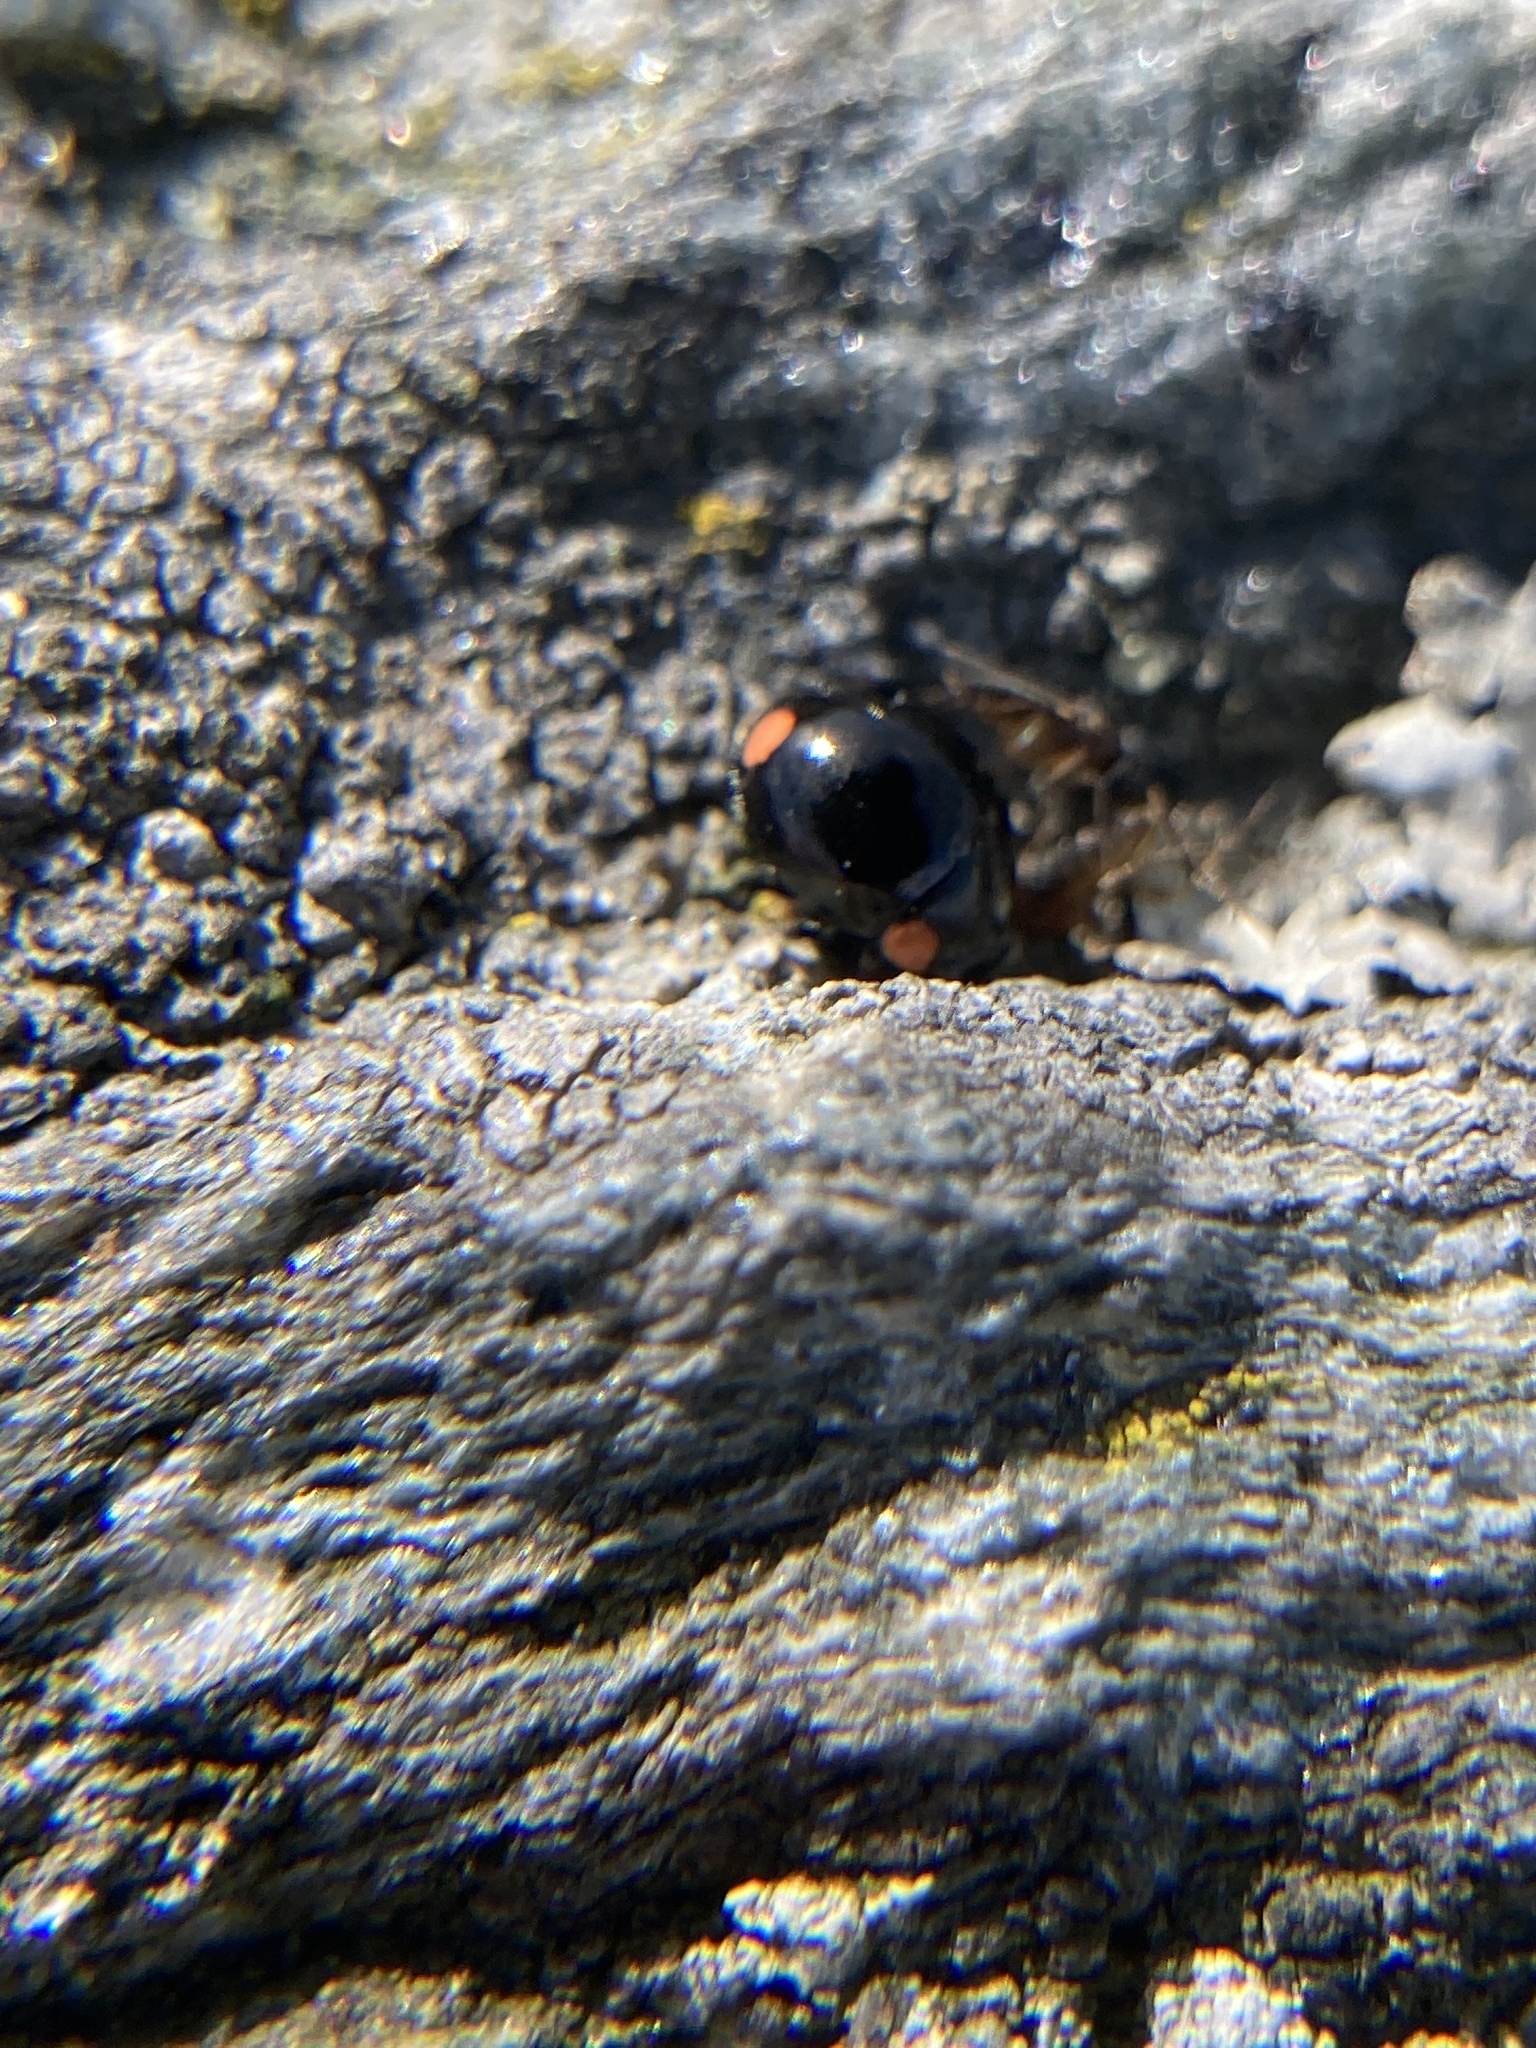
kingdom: Animalia
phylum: Arthropoda
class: Insecta
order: Coleoptera
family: Coccinellidae
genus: Hyperaspis
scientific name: Hyperaspis bigeminata
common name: Bigeminate sigil lady beetle
